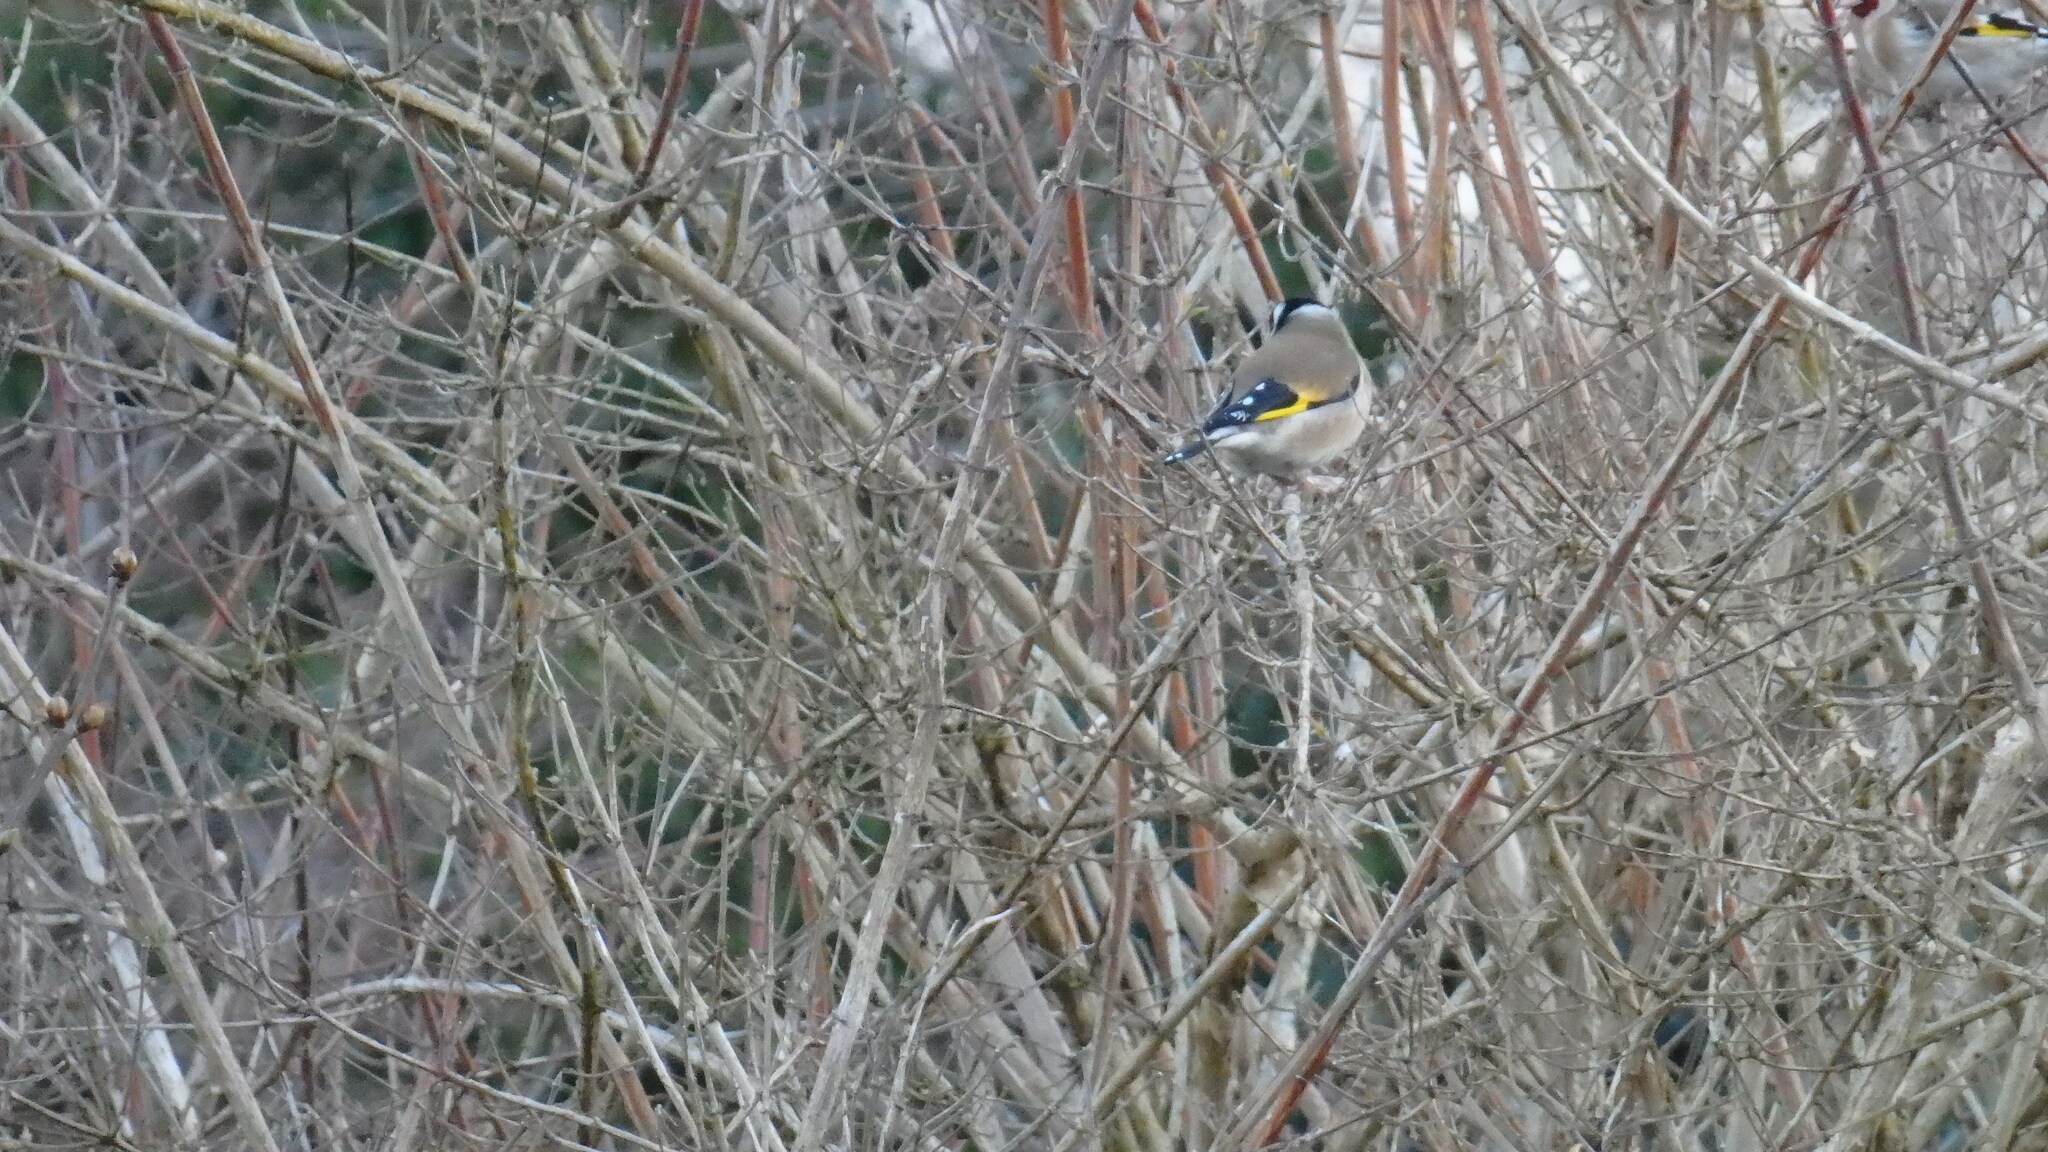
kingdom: Animalia
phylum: Chordata
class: Aves
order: Passeriformes
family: Fringillidae
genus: Carduelis
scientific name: Carduelis carduelis
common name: European goldfinch
